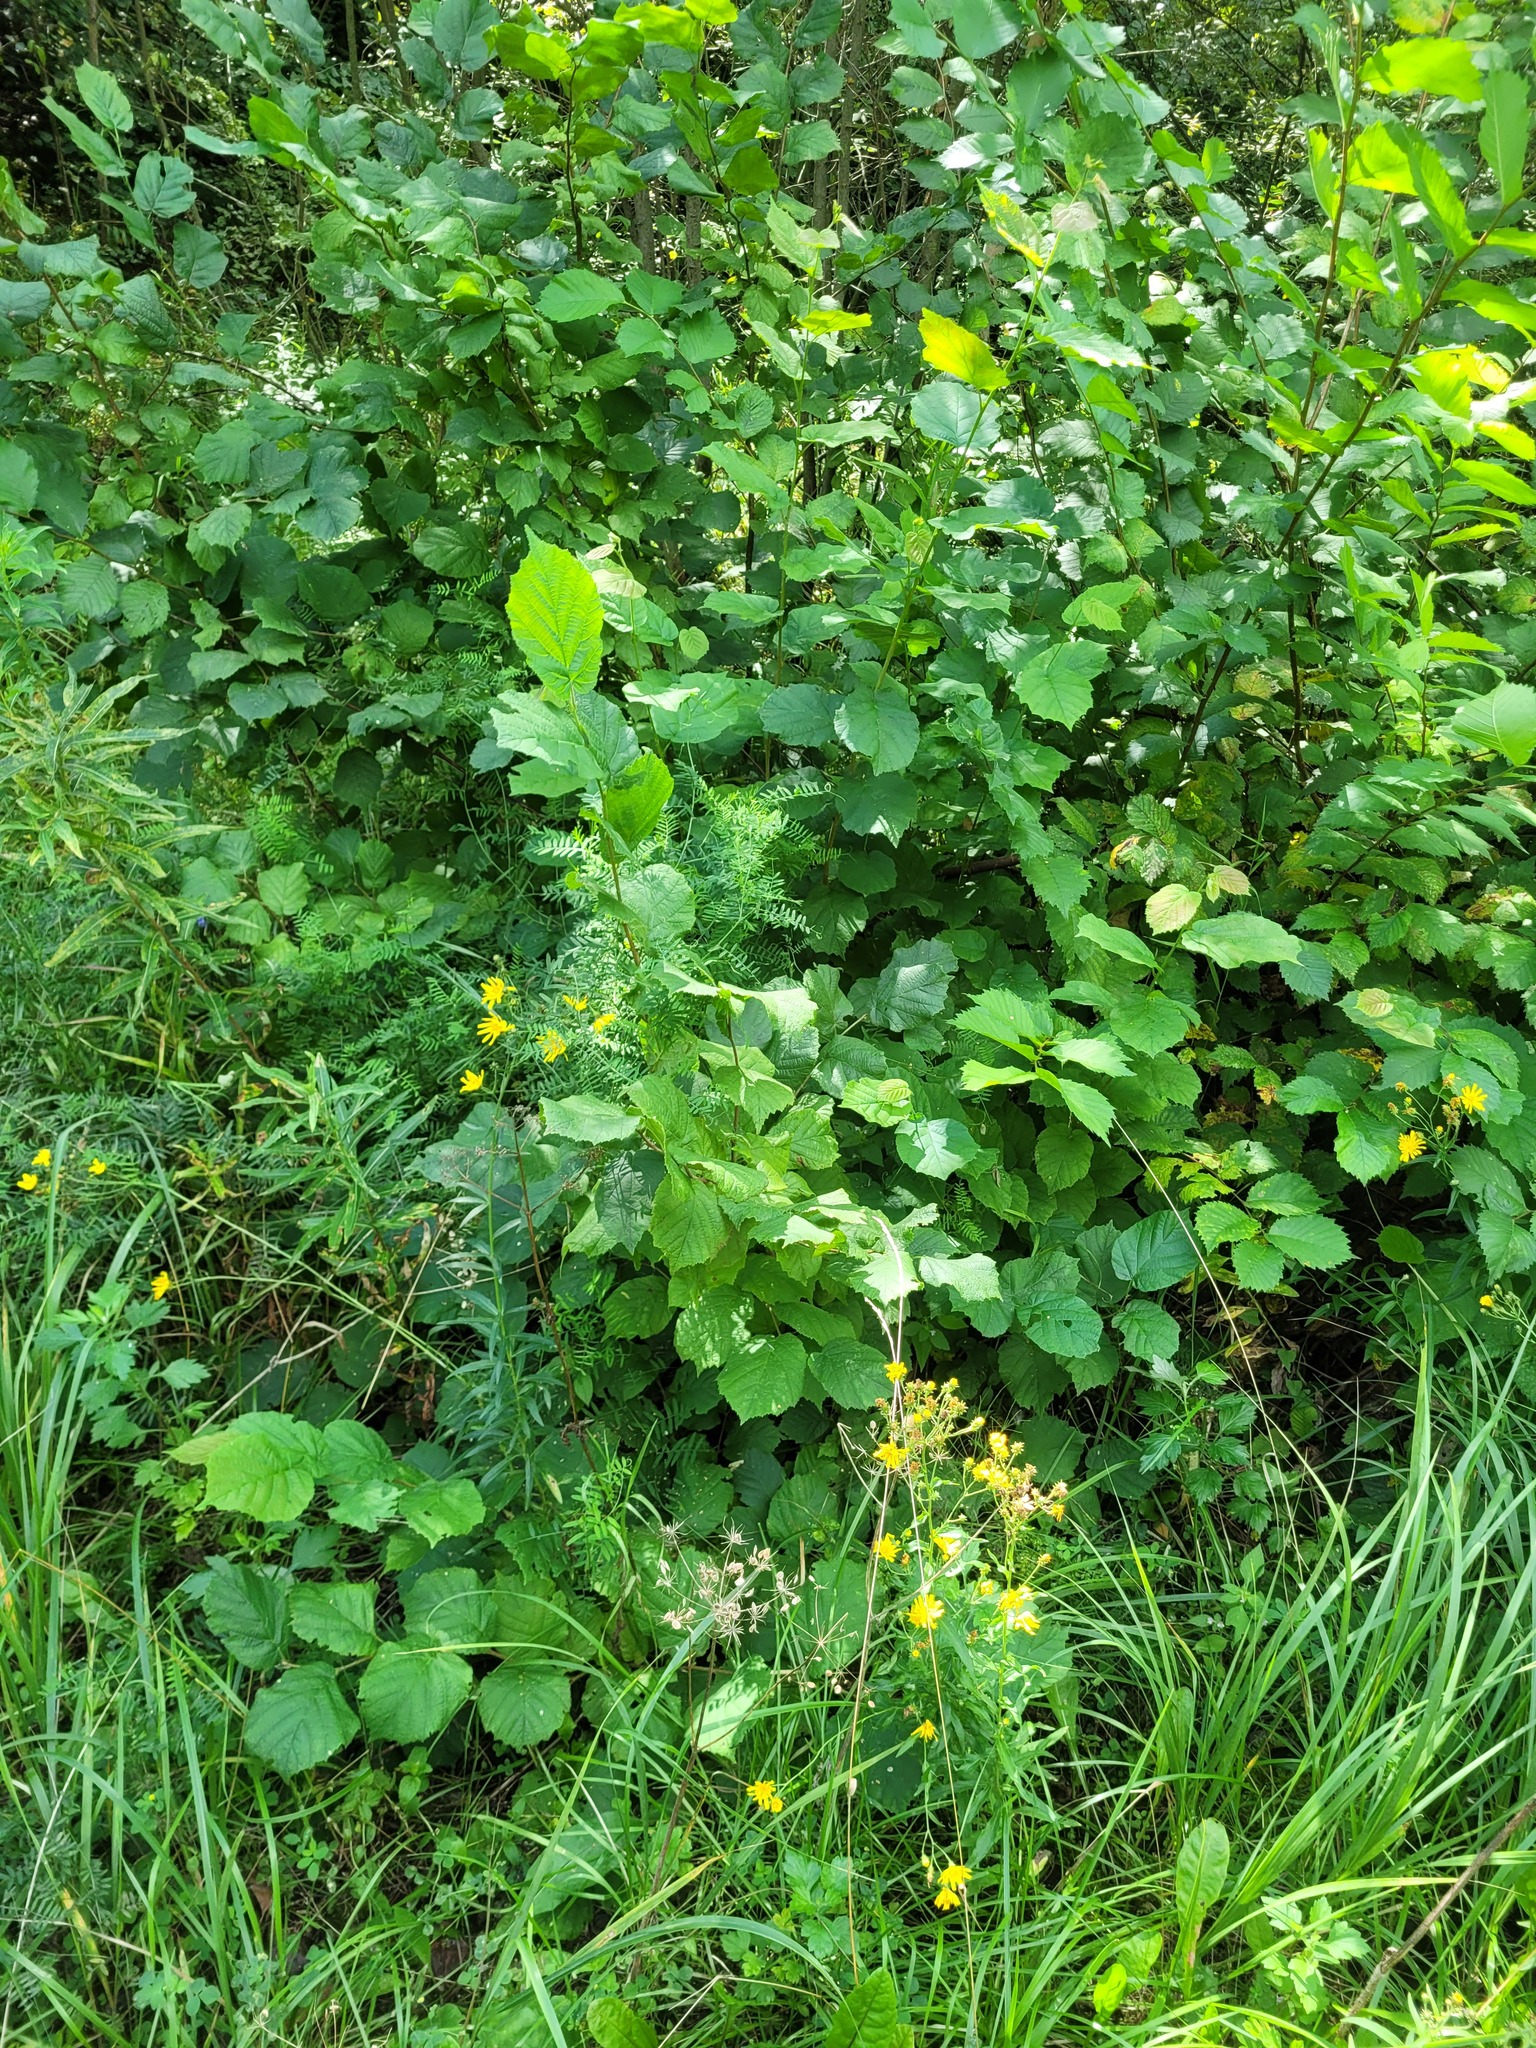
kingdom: Plantae
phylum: Tracheophyta
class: Magnoliopsida
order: Fagales
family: Betulaceae
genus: Corylus
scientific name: Corylus avellana
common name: European hazel
